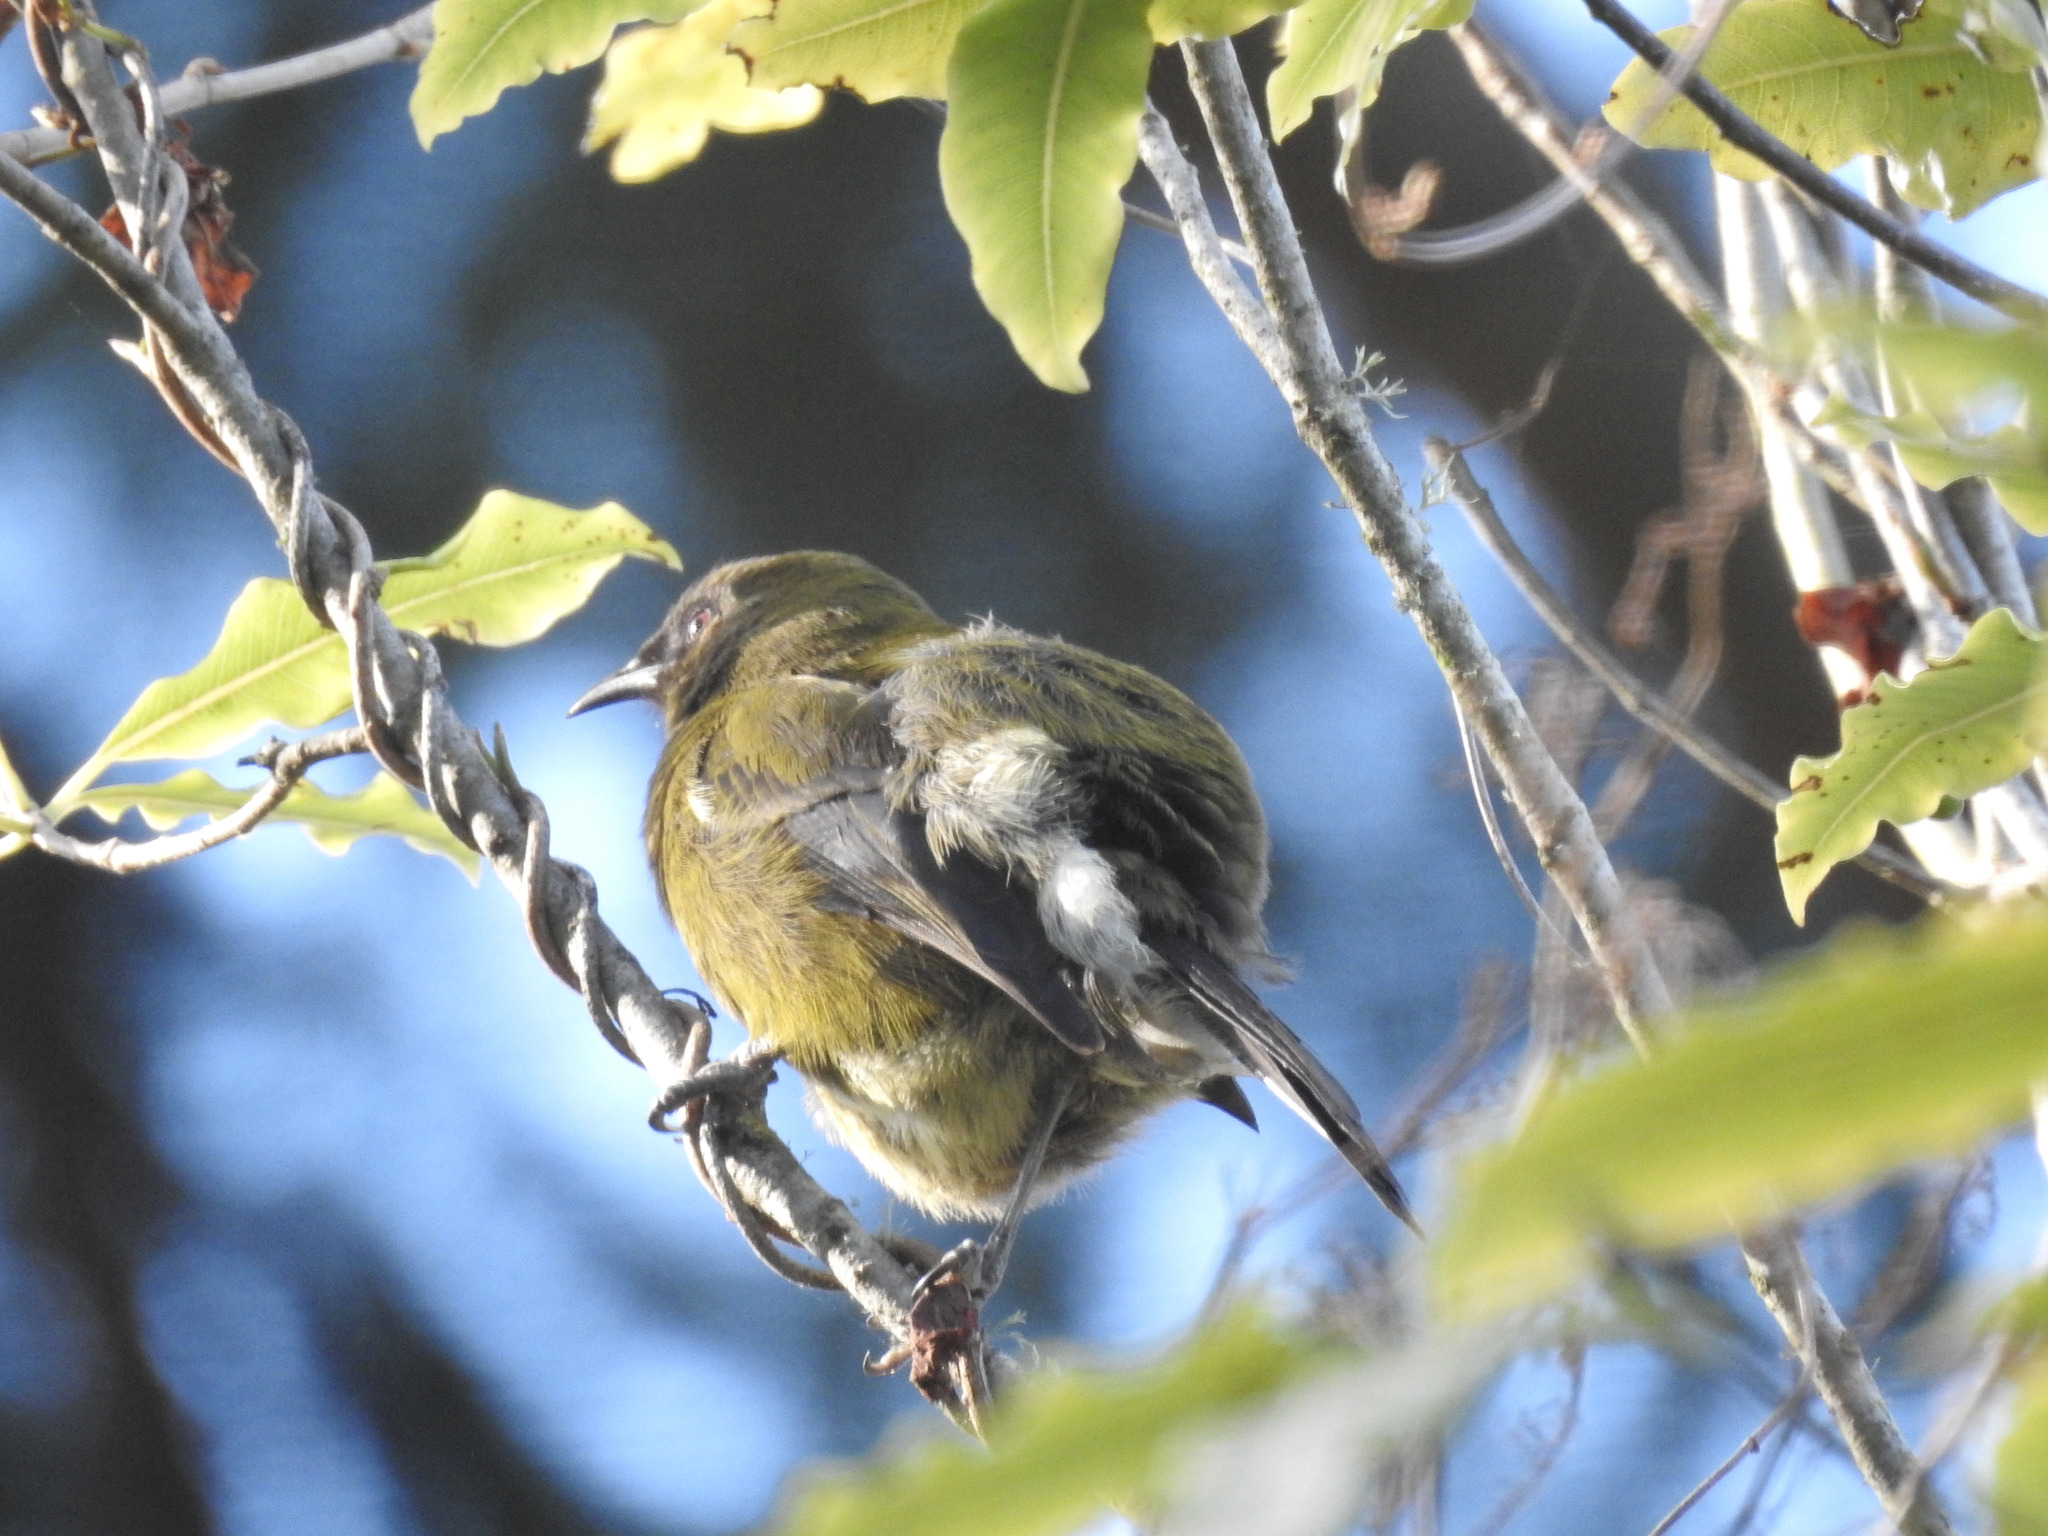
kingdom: Animalia
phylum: Chordata
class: Aves
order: Passeriformes
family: Meliphagidae
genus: Anthornis
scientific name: Anthornis melanura
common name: New zealand bellbird
